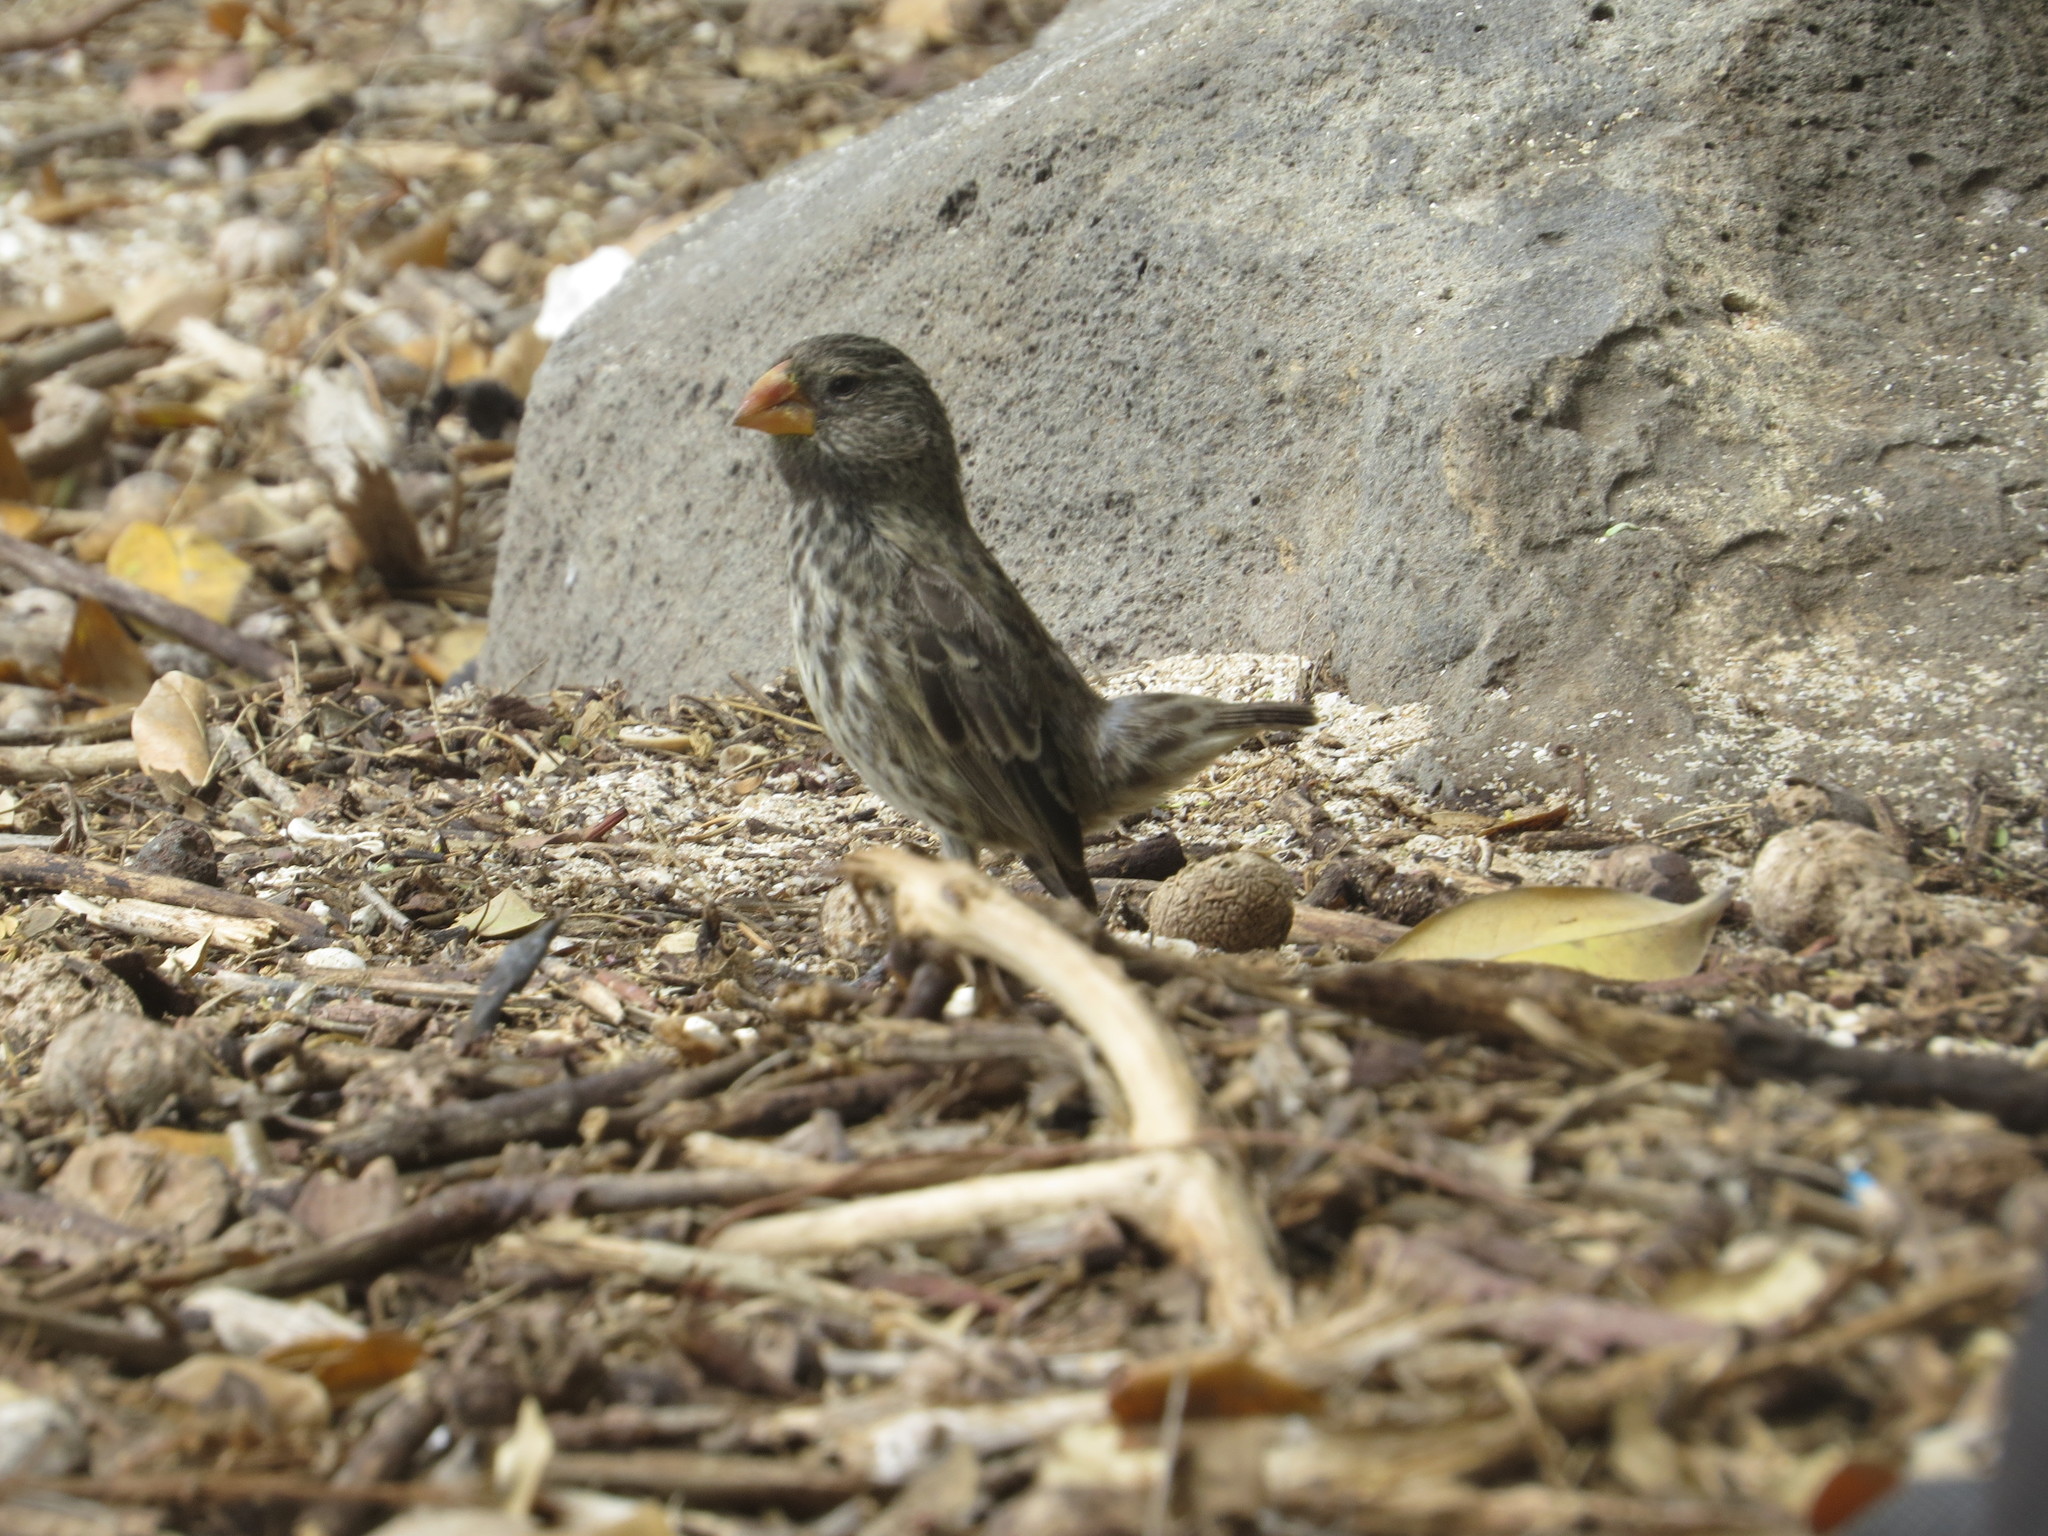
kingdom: Animalia
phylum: Chordata
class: Aves
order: Passeriformes
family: Thraupidae
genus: Geospiza
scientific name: Geospiza fortis
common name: Medium ground finch
